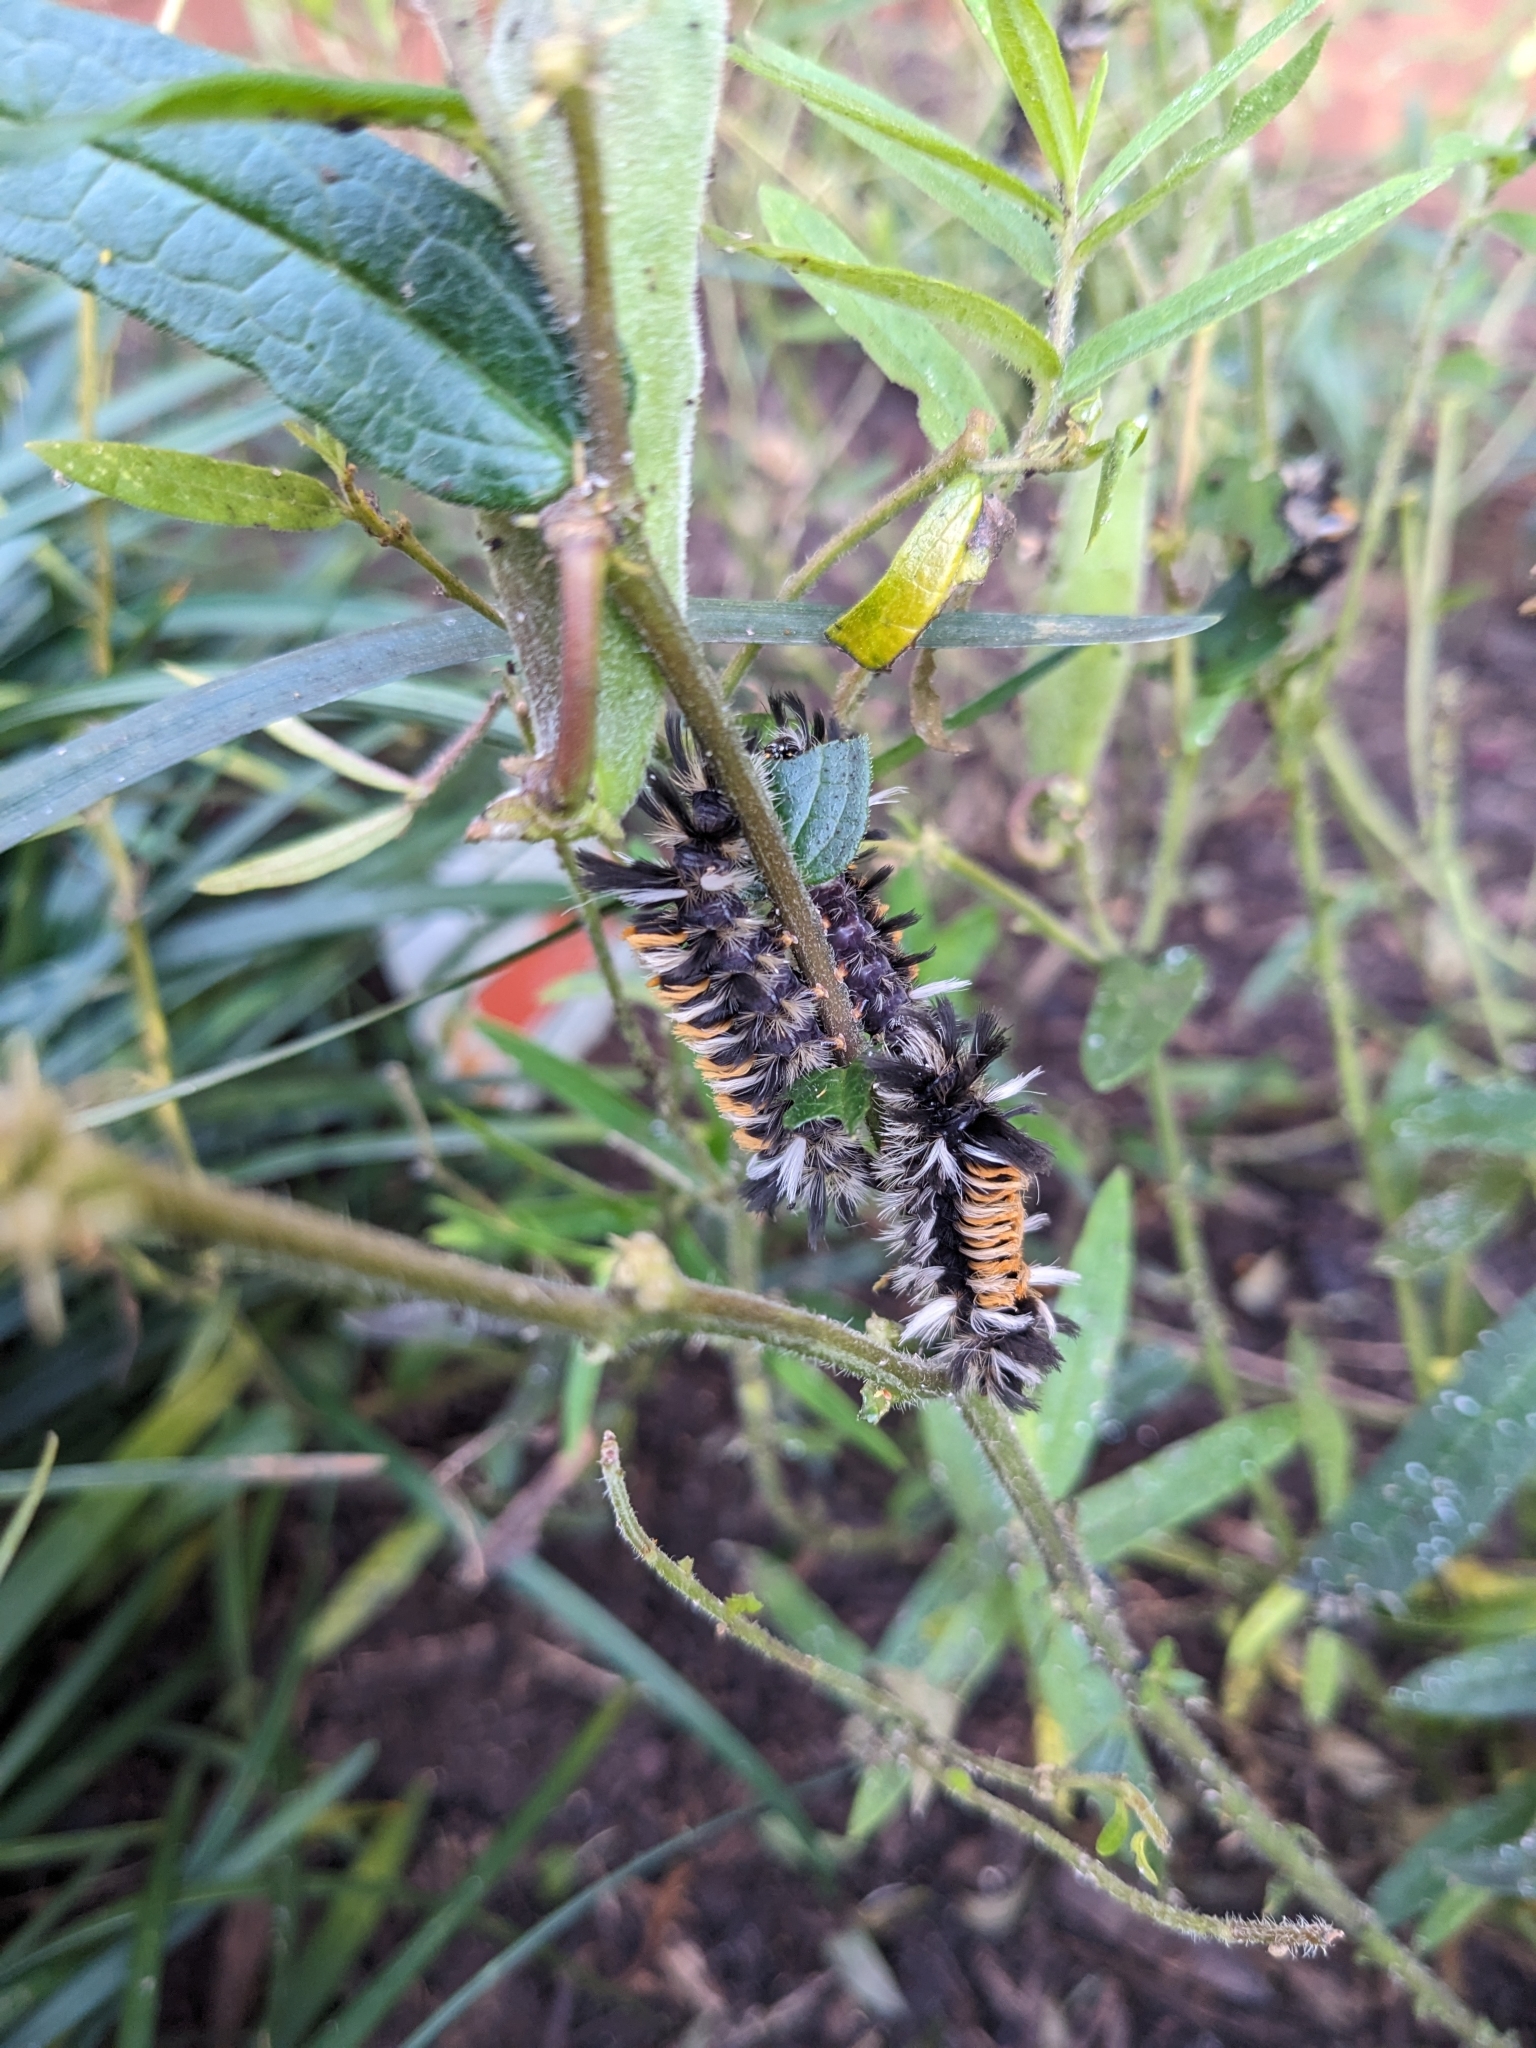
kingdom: Animalia
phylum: Arthropoda
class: Insecta
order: Lepidoptera
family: Erebidae
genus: Euchaetes
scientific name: Euchaetes egle
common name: Milkweed tussock moth
